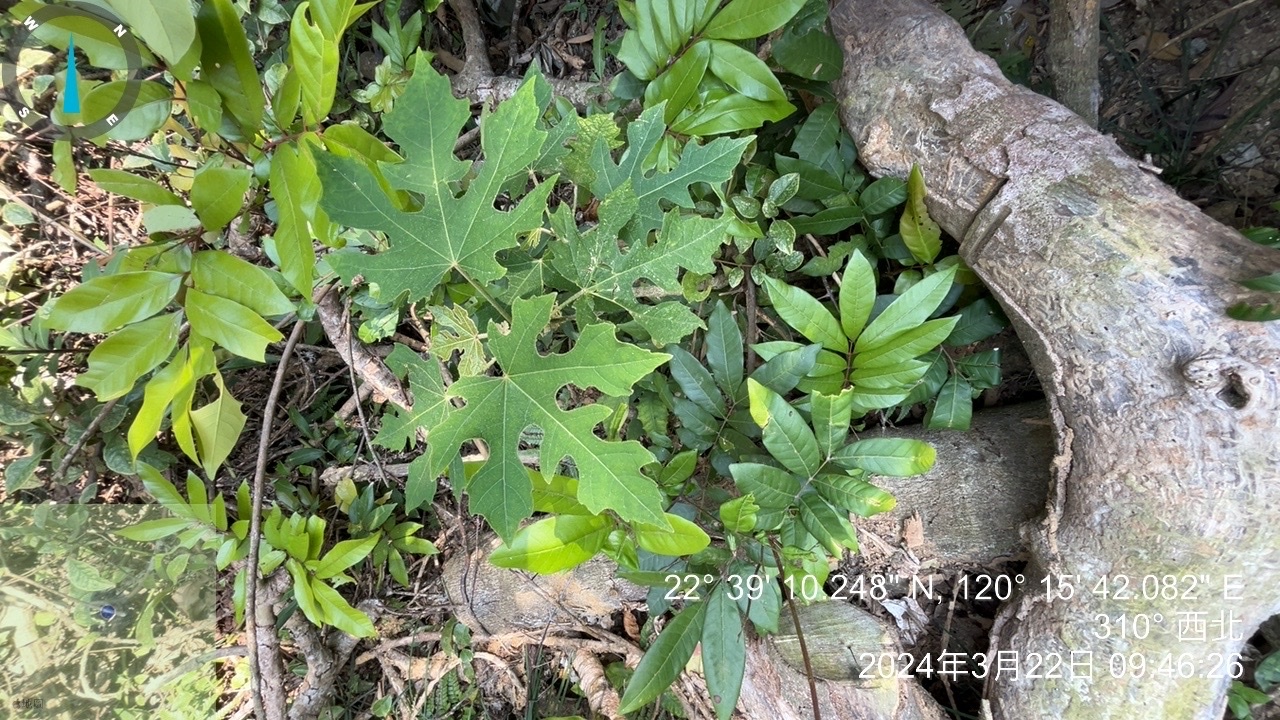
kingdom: Plantae
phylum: Tracheophyta
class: Magnoliopsida
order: Malpighiales
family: Euphorbiaceae
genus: Melanolepis
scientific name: Melanolepis multiglandulosa
